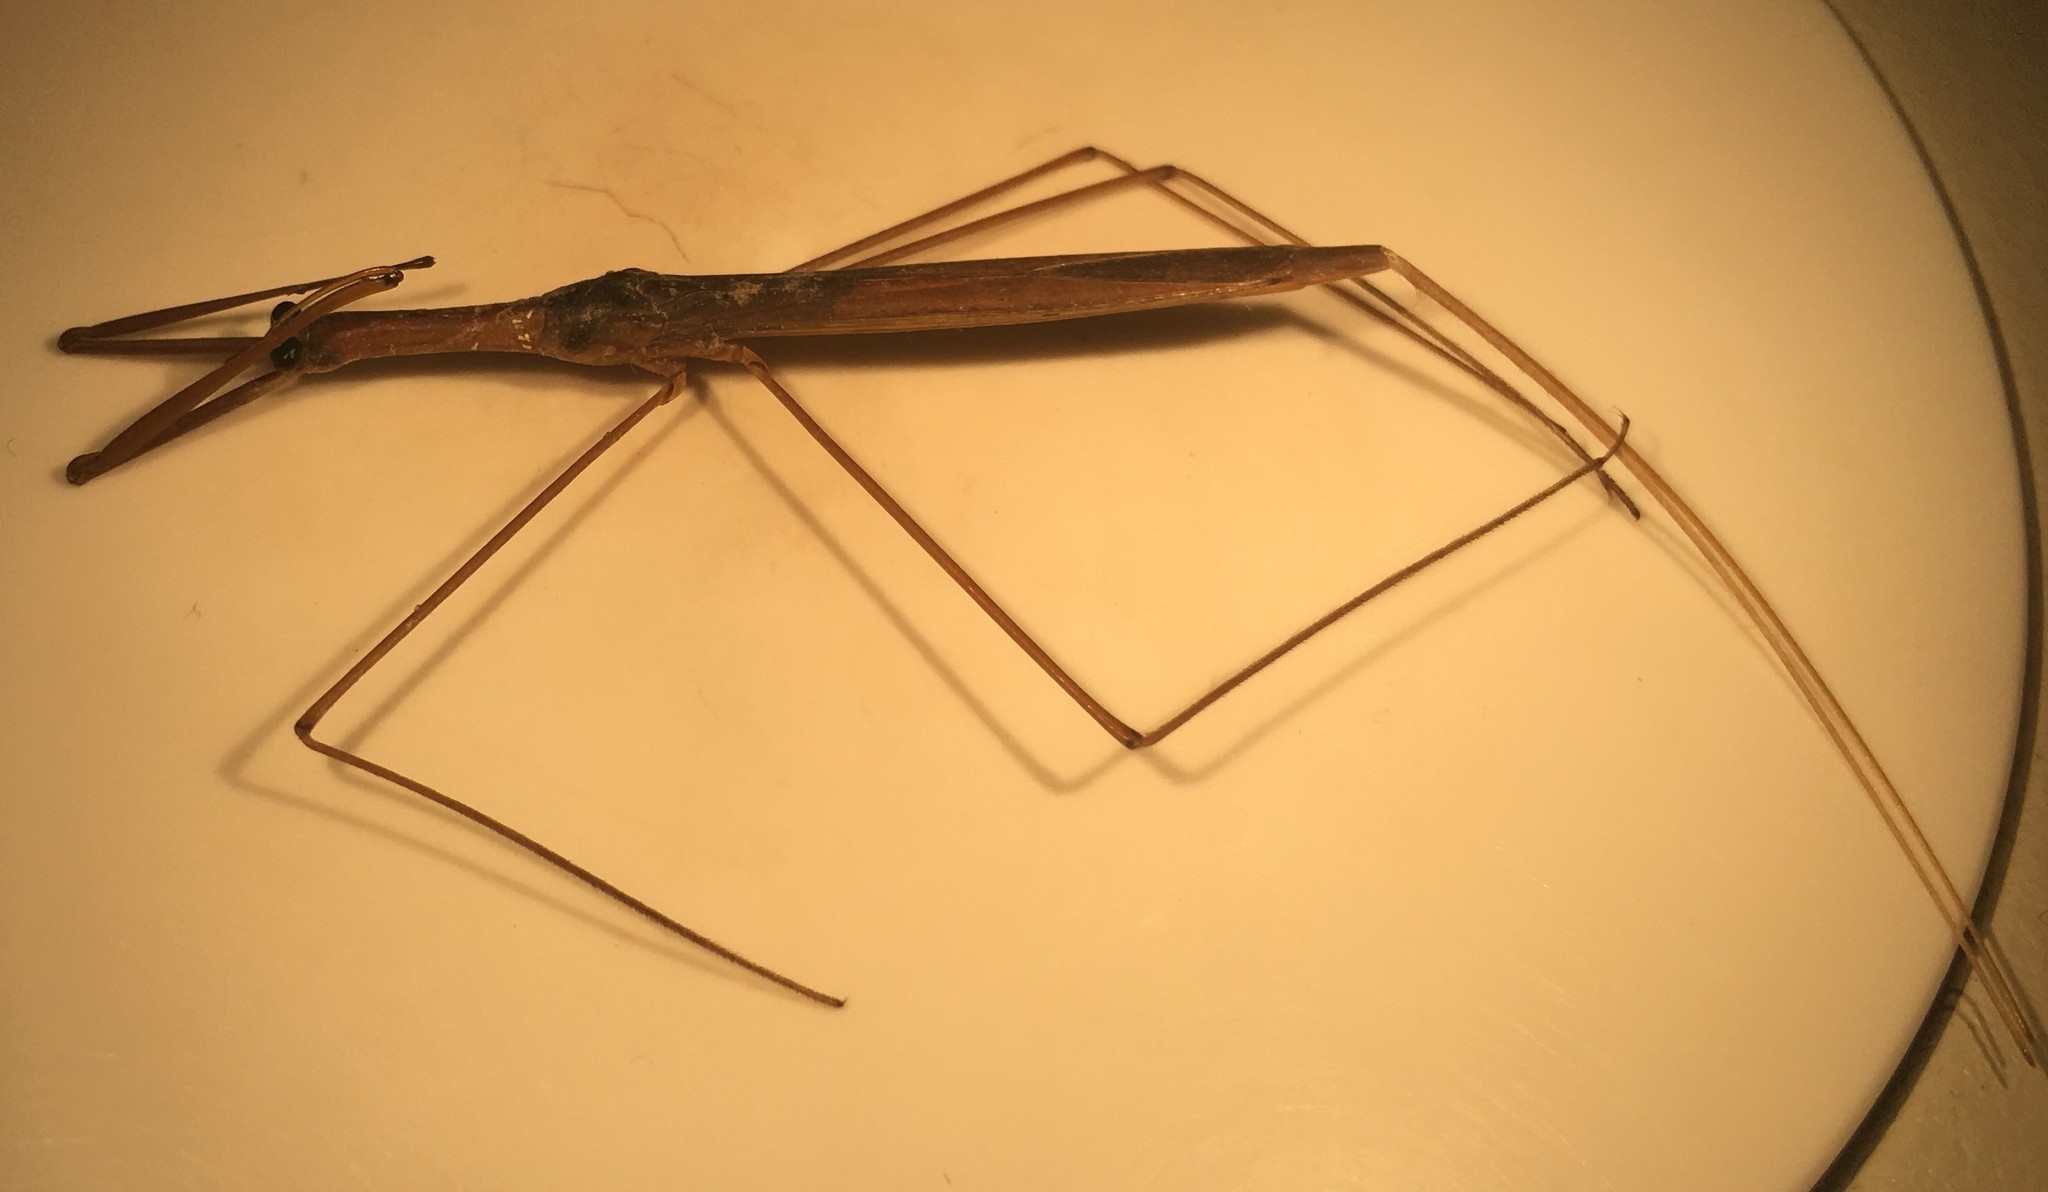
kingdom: Animalia
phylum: Arthropoda
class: Insecta
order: Hemiptera
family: Nepidae
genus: Ranatra
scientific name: Ranatra drakei
